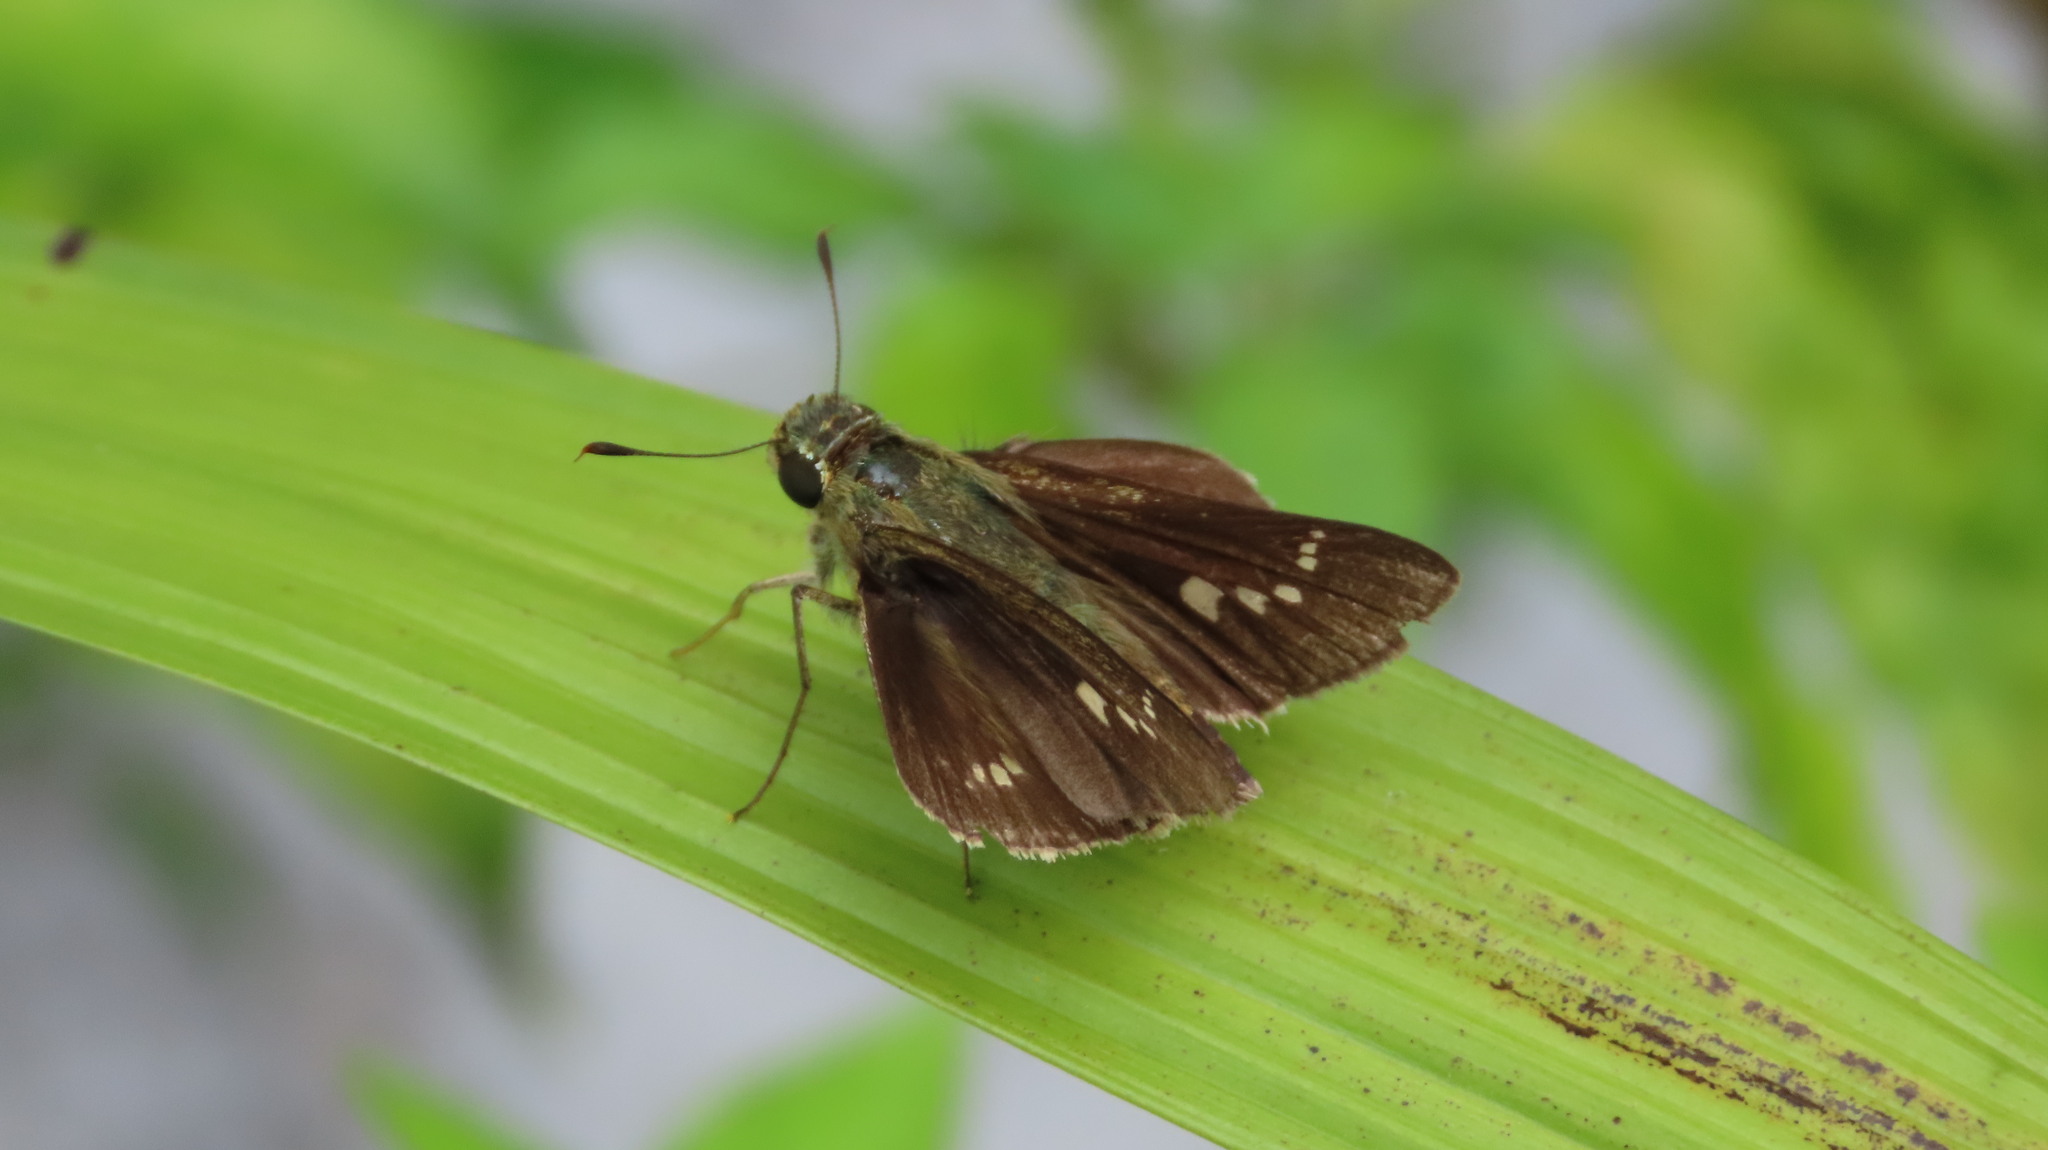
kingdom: Animalia
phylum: Arthropoda
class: Insecta
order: Lepidoptera
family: Hesperiidae
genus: Parnara
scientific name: Parnara naso
